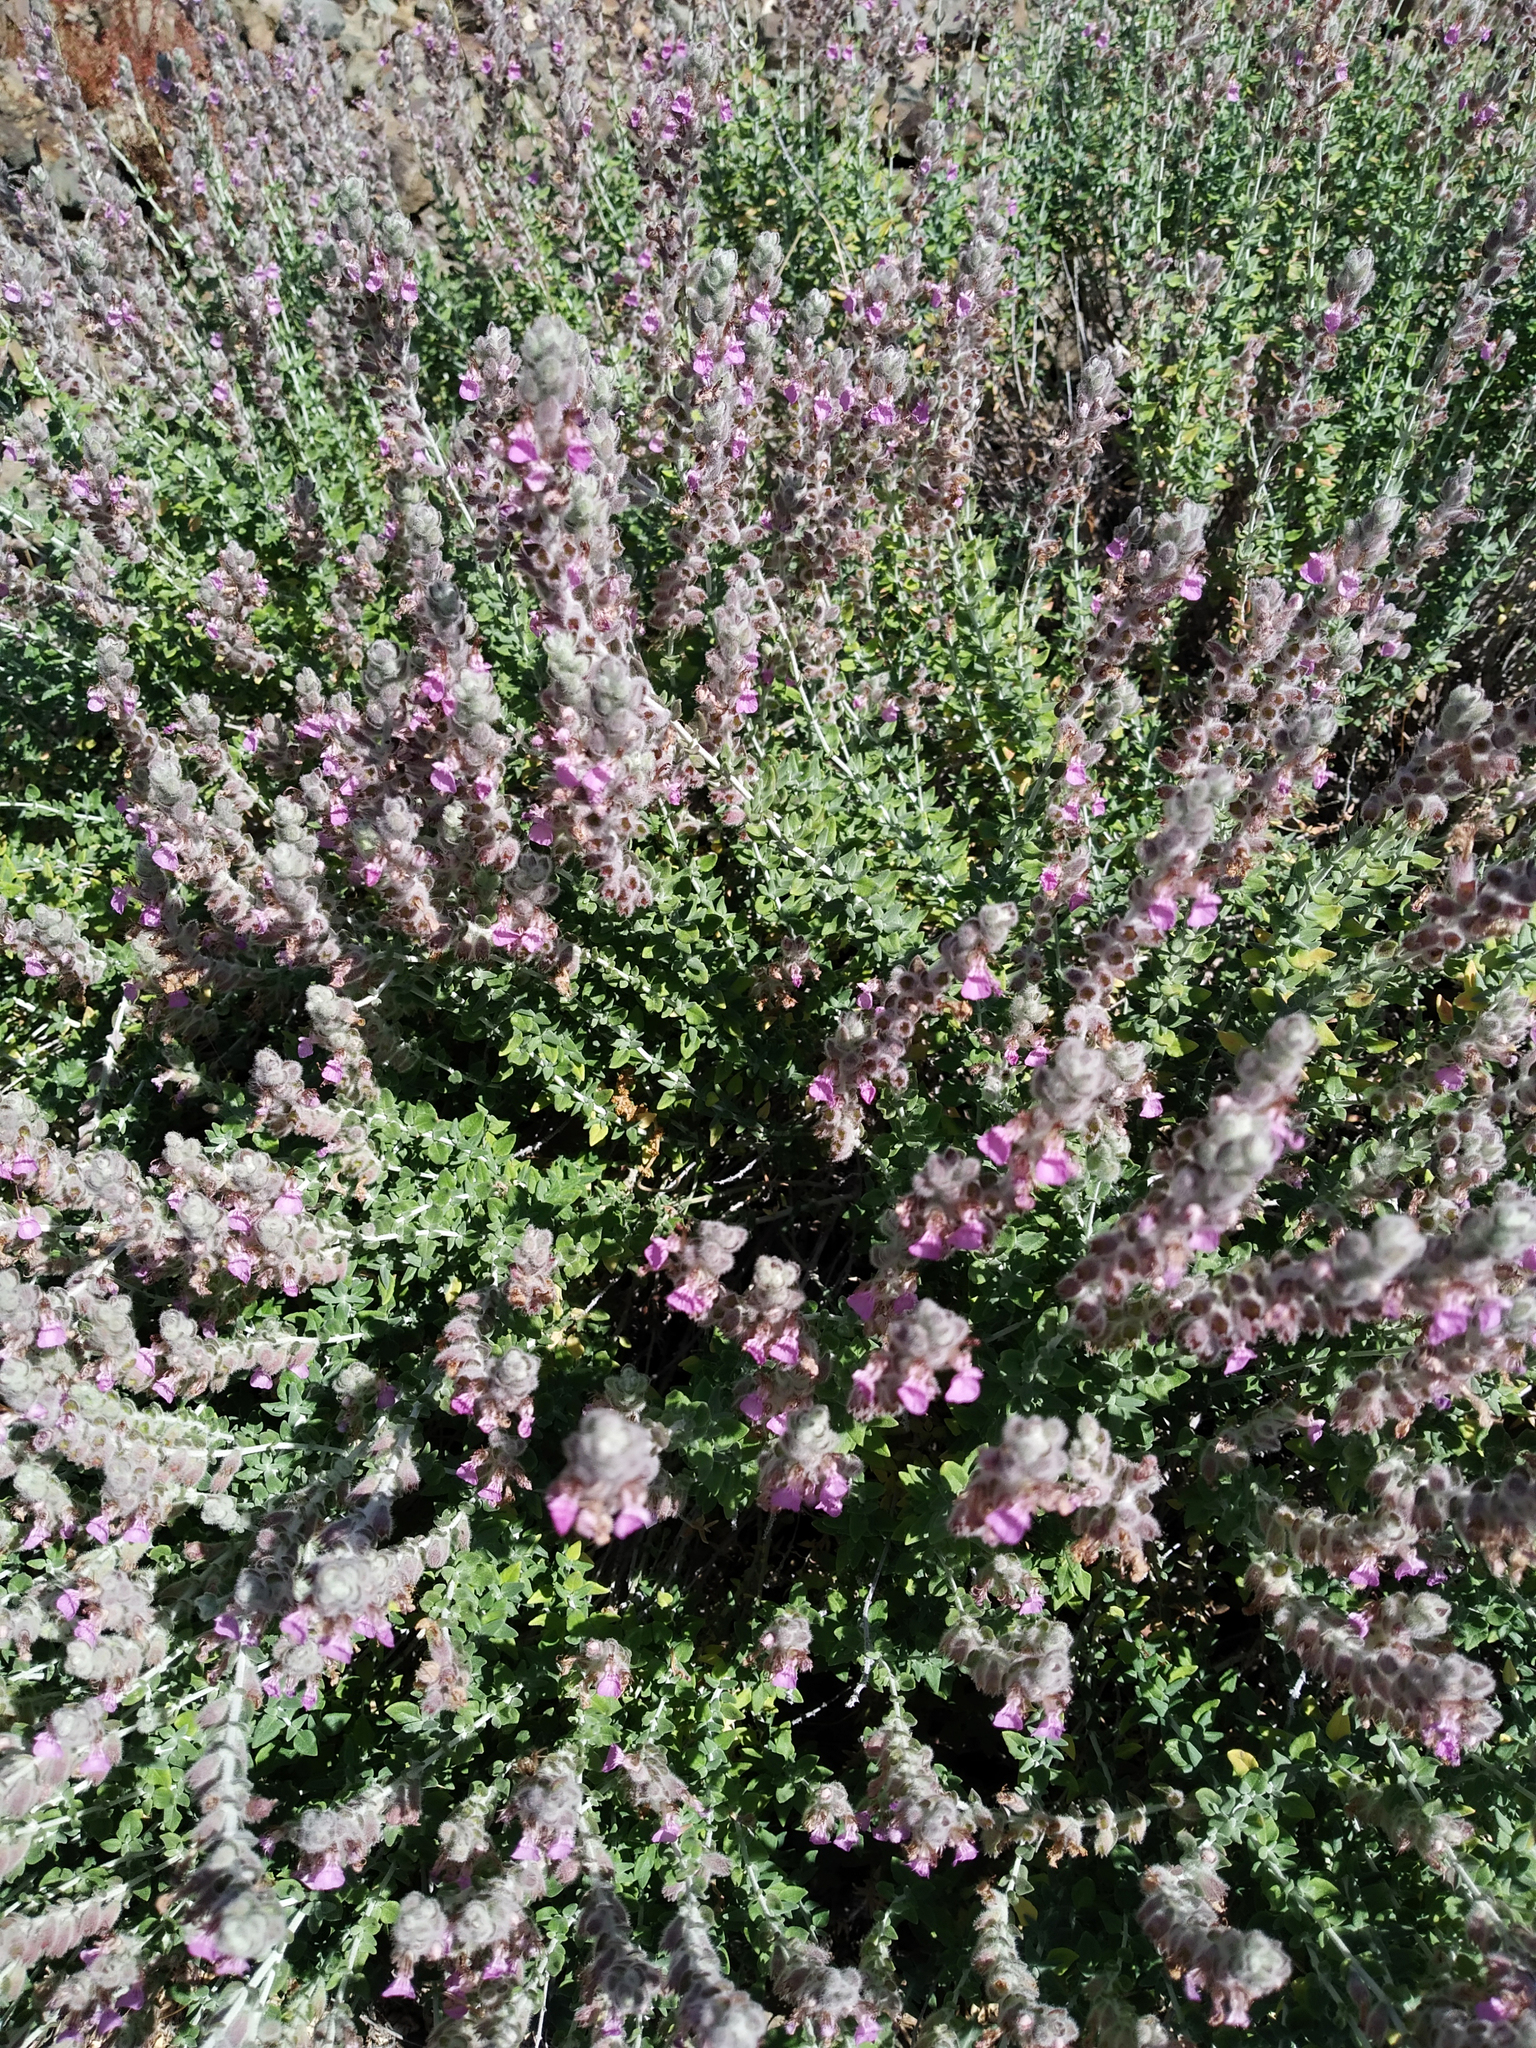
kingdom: Plantae
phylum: Tracheophyta
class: Magnoliopsida
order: Lamiales
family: Lamiaceae
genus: Teucrium
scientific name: Teucrium marum
